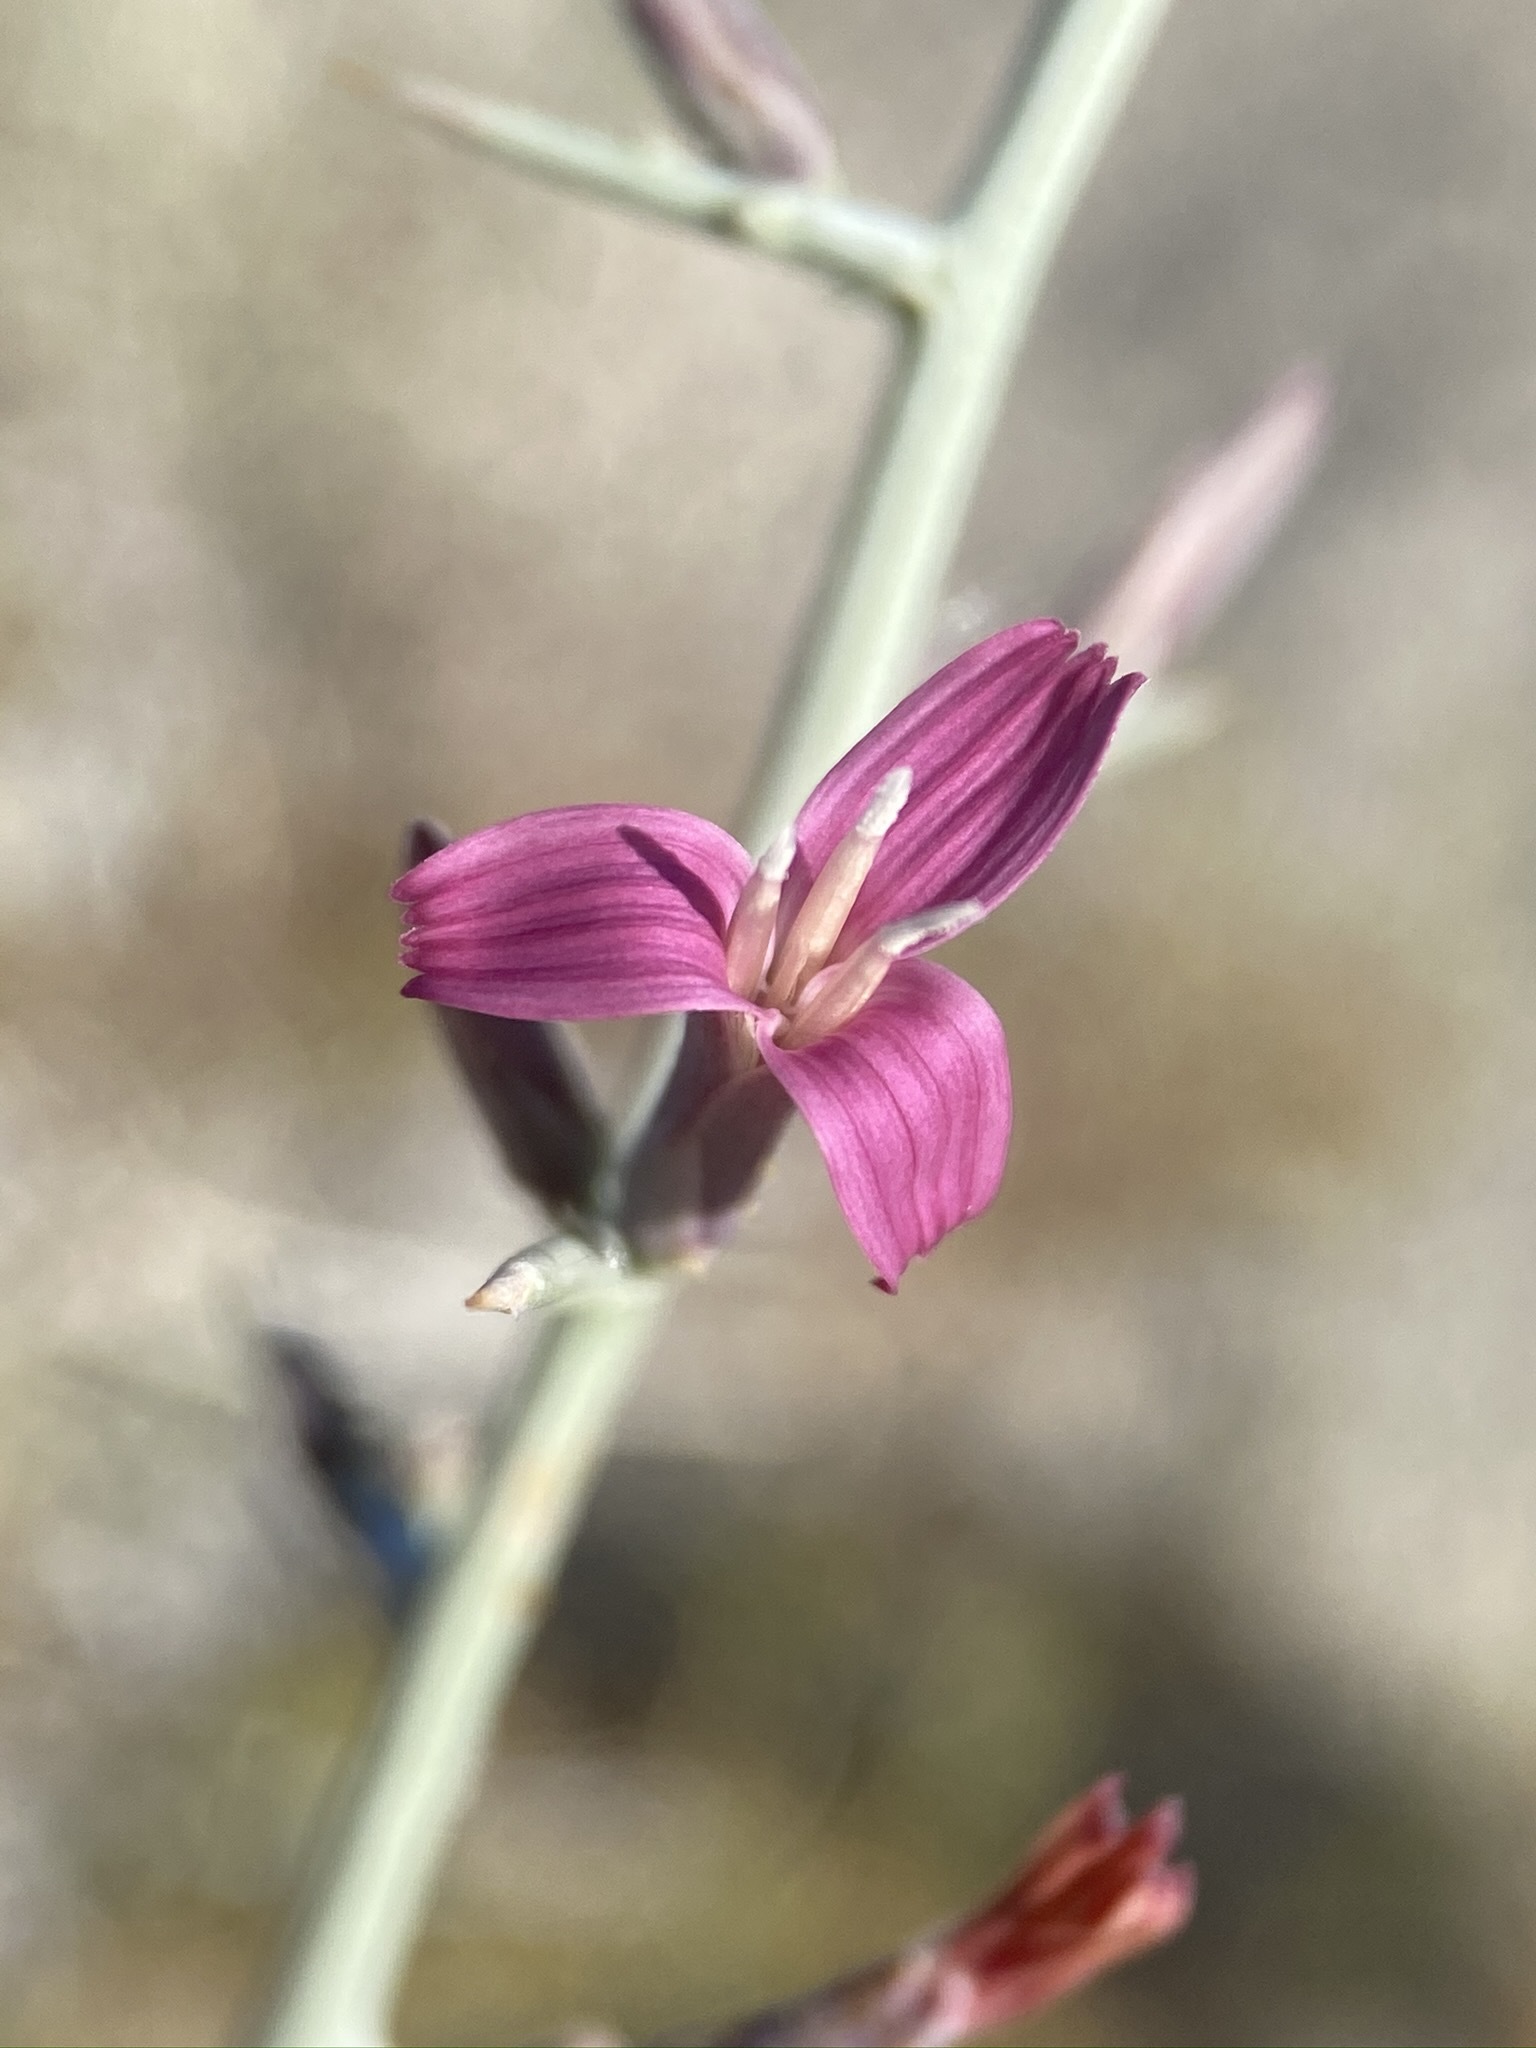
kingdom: Plantae
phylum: Tracheophyta
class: Magnoliopsida
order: Asterales
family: Asteraceae
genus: Pleiacanthus
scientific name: Pleiacanthus spinosus
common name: Thorny skeleton-weed
